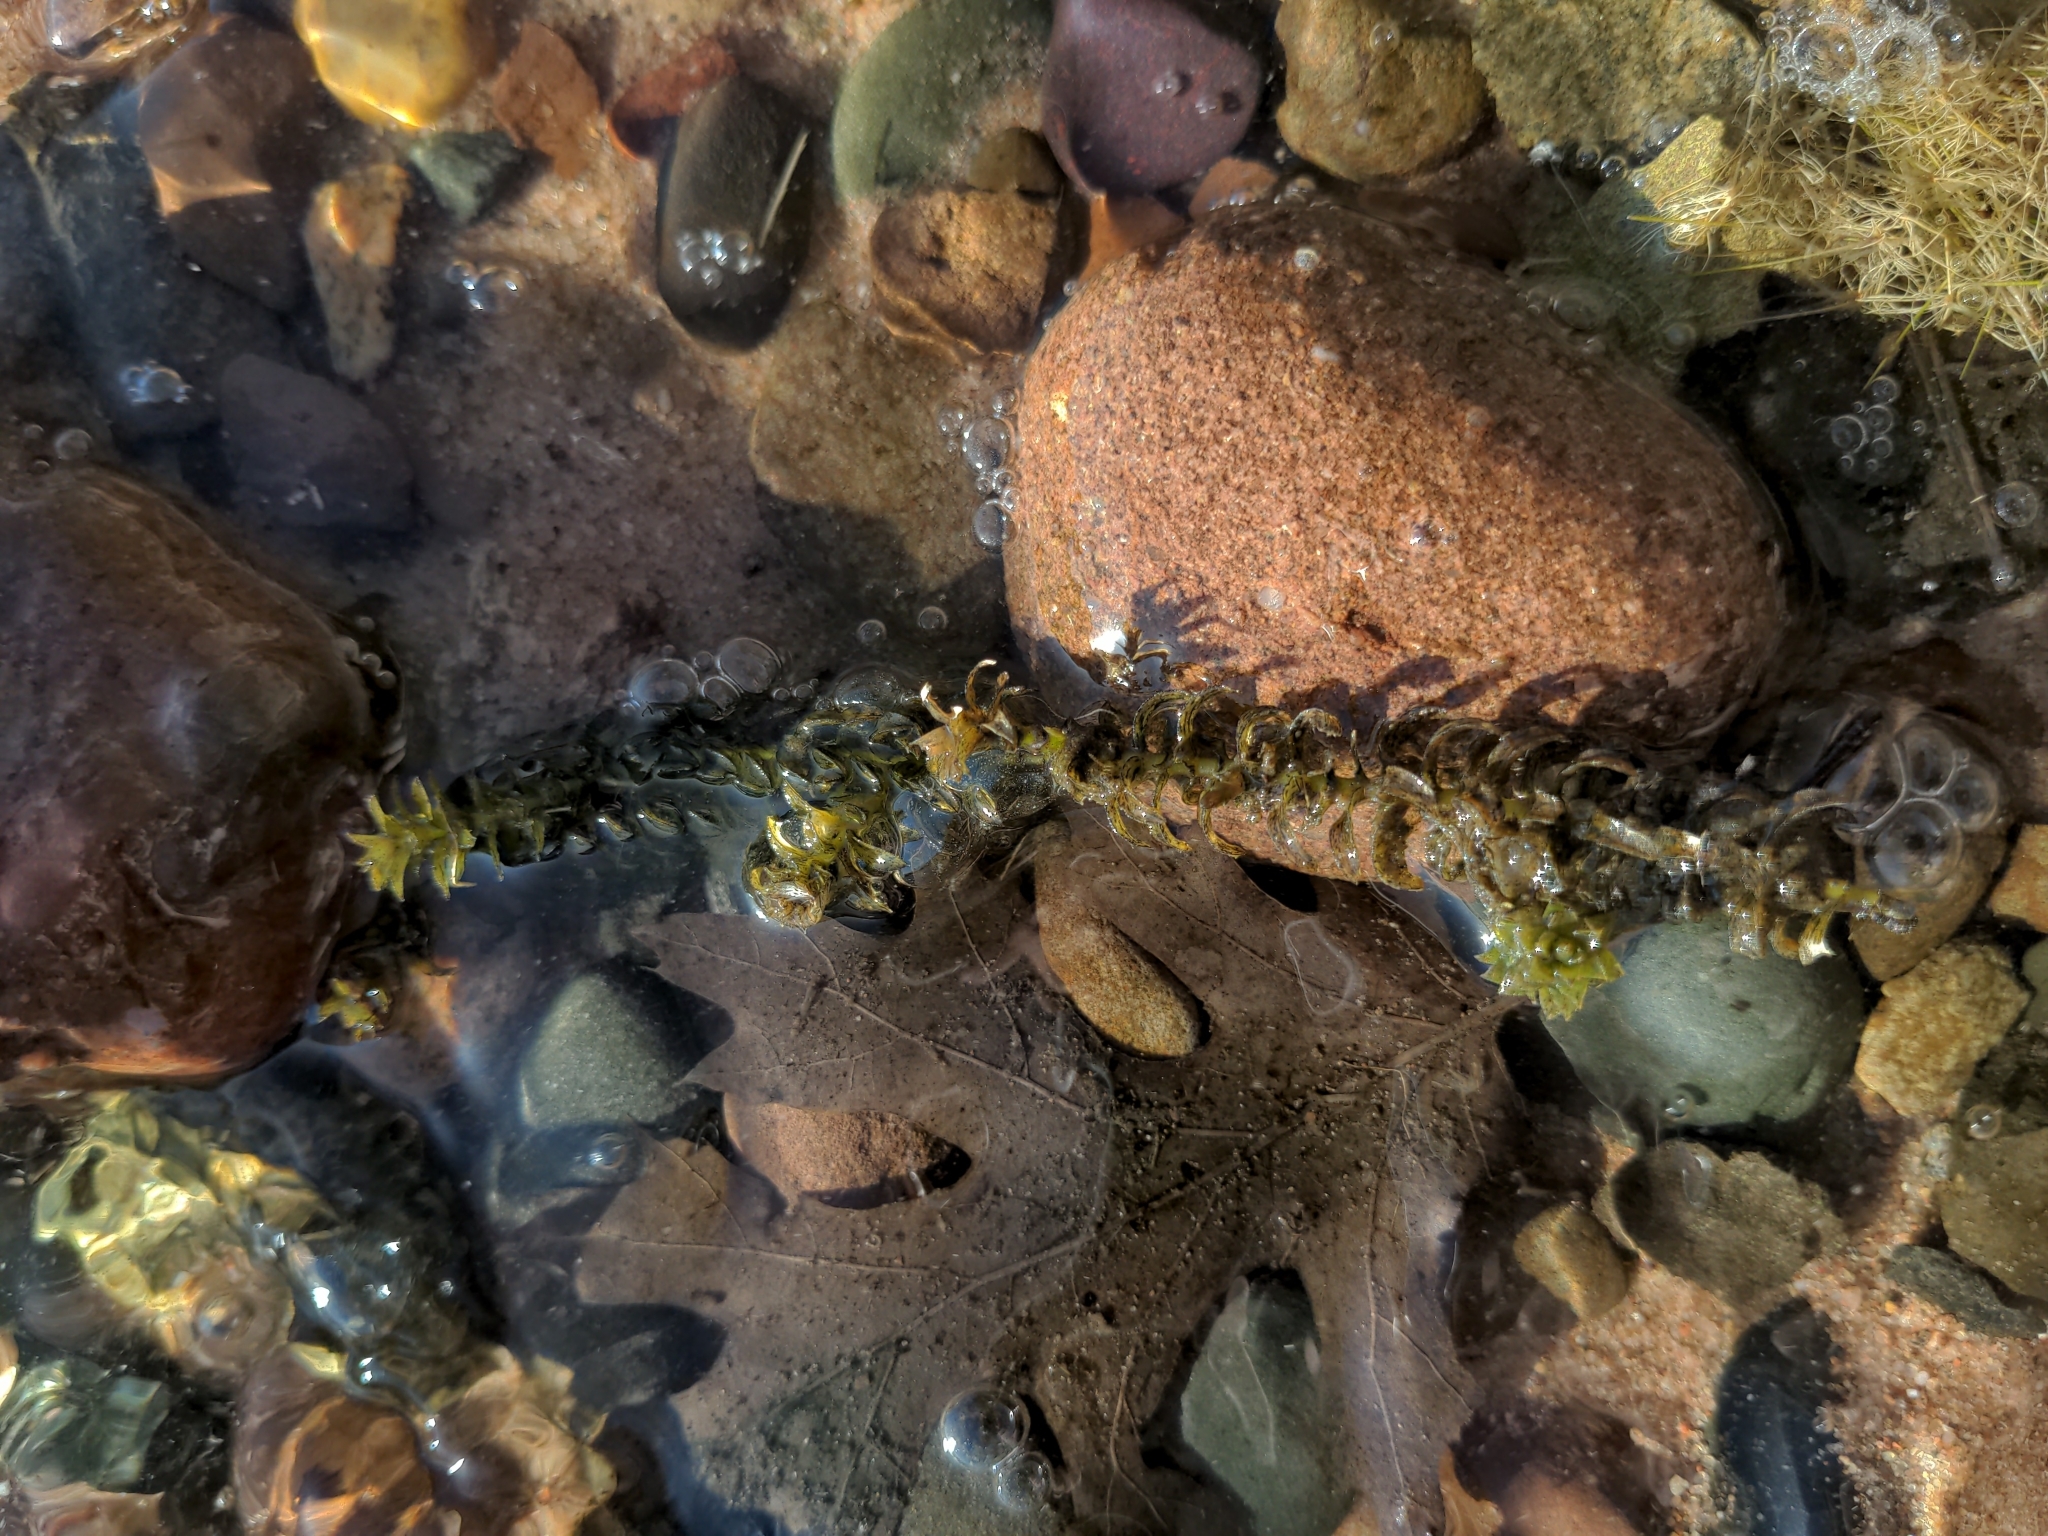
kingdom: Plantae
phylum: Tracheophyta
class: Liliopsida
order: Alismatales
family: Hydrocharitaceae
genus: Elodea
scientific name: Elodea canadensis
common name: Canadian waterweed
